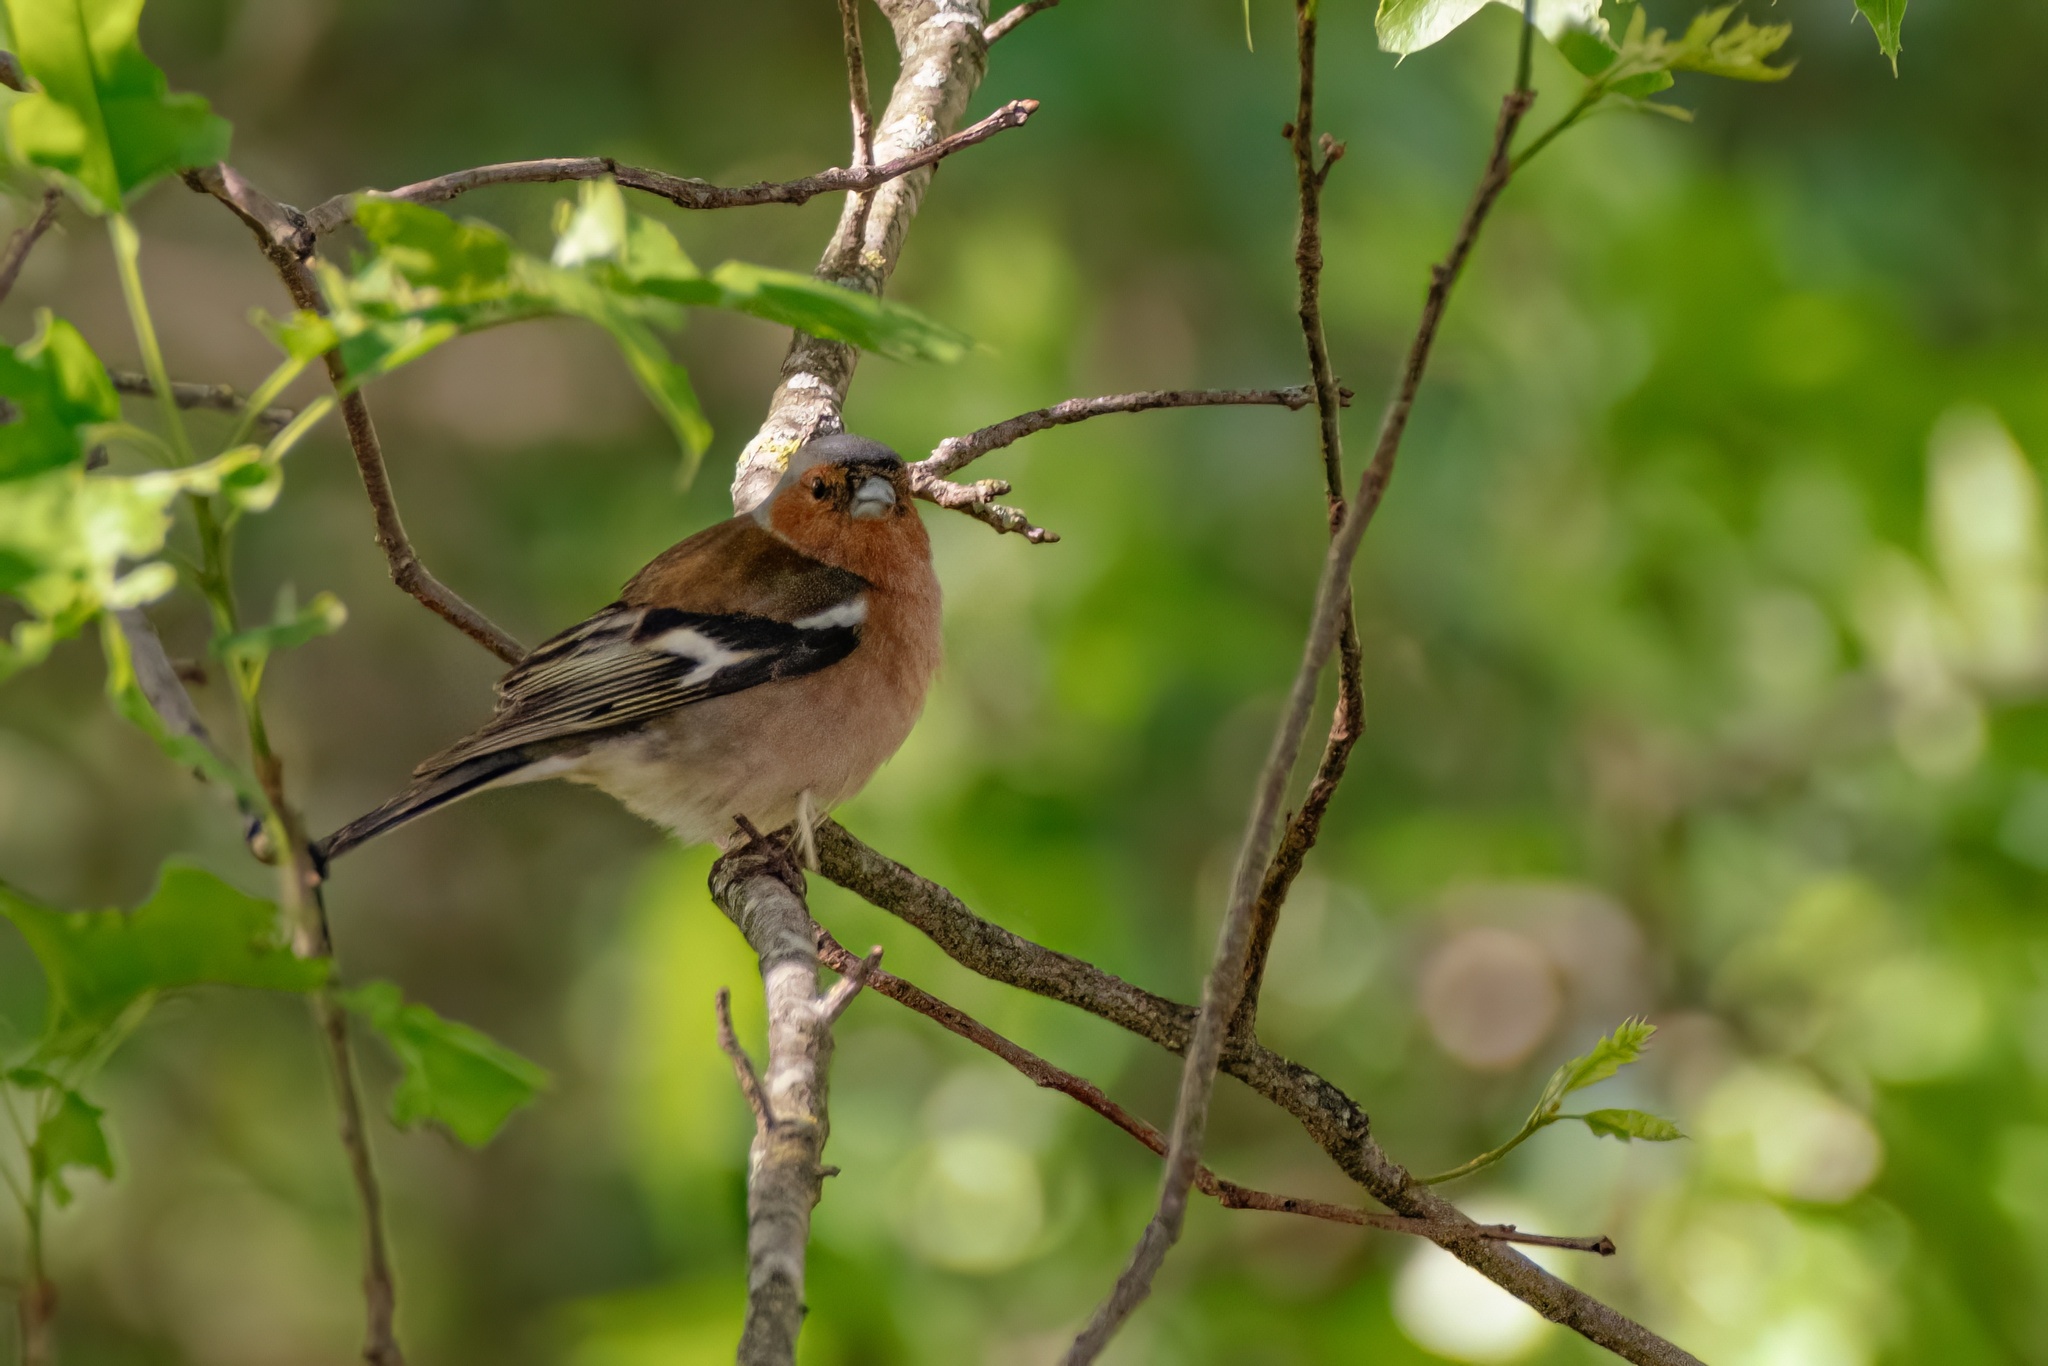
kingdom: Animalia
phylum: Chordata
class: Aves
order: Passeriformes
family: Fringillidae
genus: Fringilla
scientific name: Fringilla coelebs
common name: Common chaffinch
